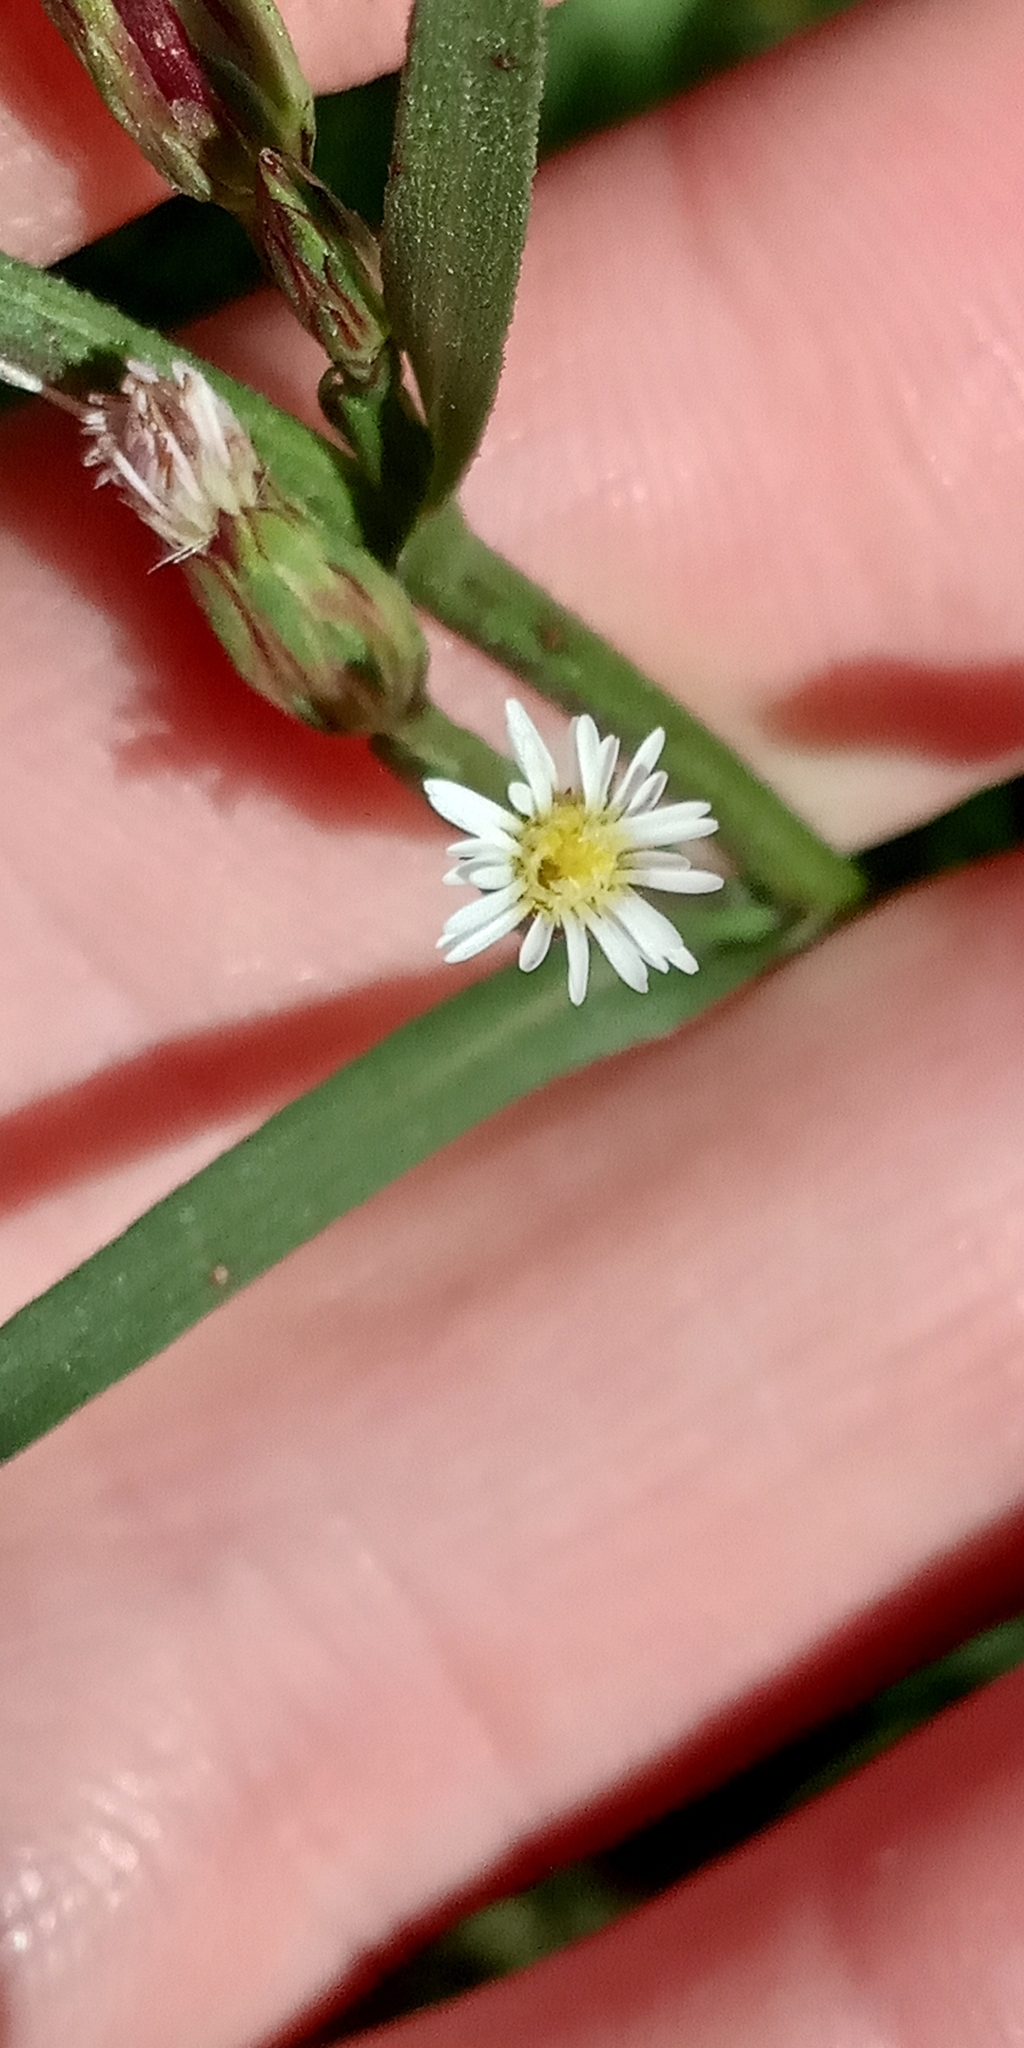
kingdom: Plantae
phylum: Tracheophyta
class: Magnoliopsida
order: Asterales
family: Asteraceae
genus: Symphyotrichum
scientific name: Symphyotrichum squamatum
